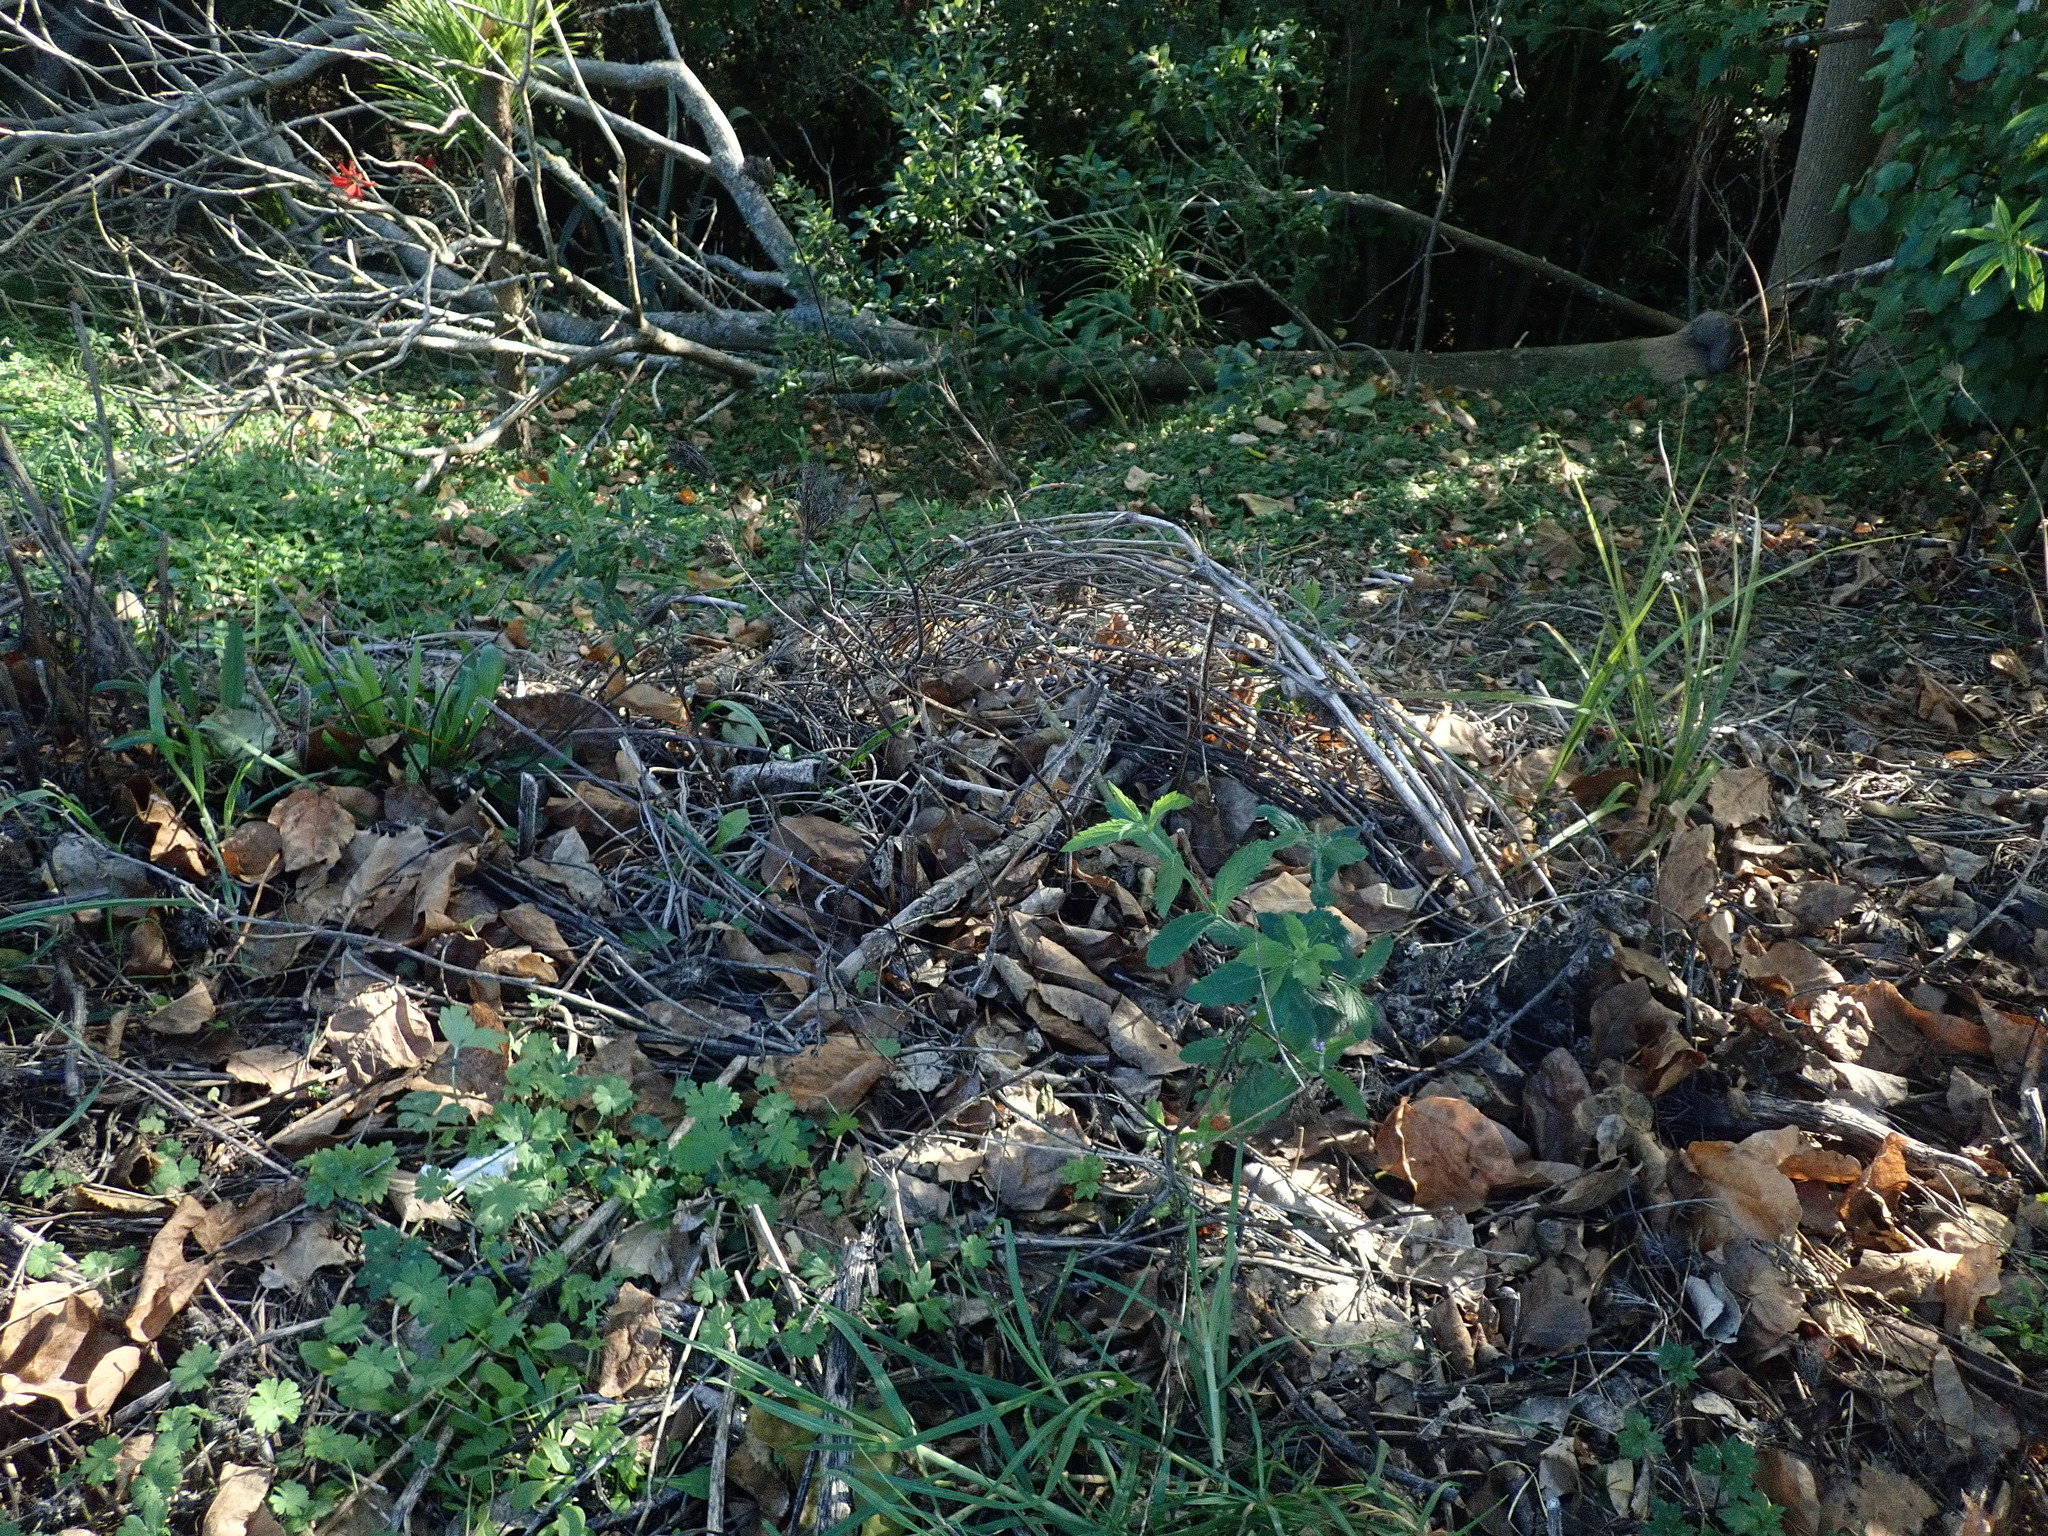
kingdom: Plantae
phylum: Tracheophyta
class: Magnoliopsida
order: Gentianales
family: Rubiaceae
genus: Coprosma
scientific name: Coprosma robusta
